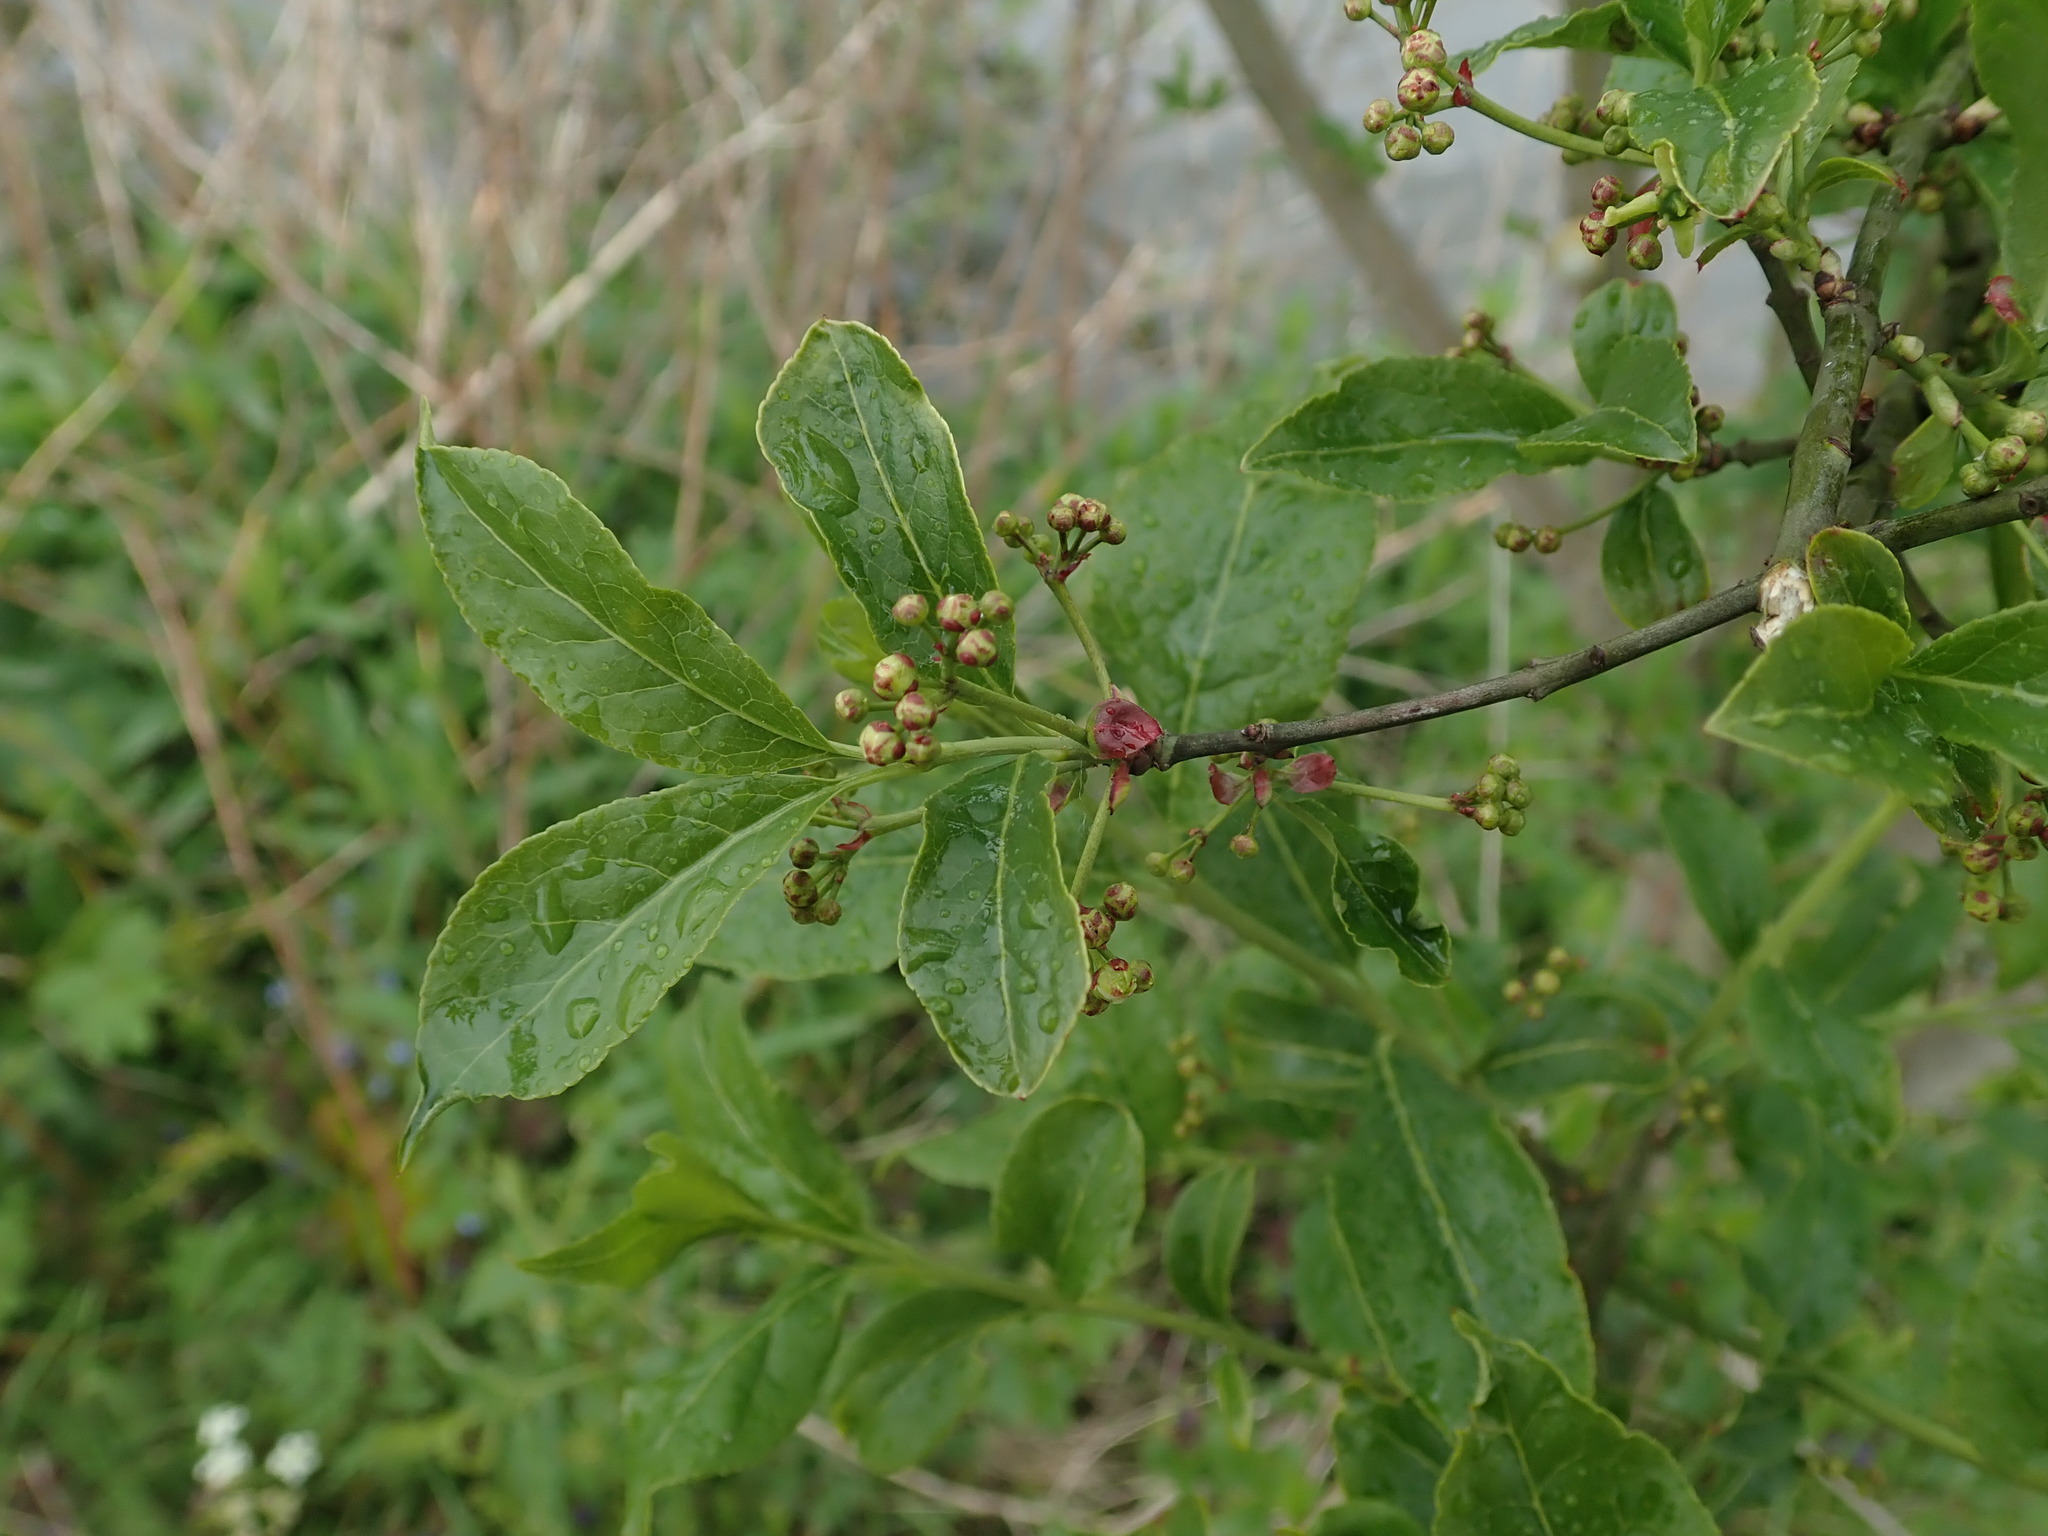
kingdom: Plantae
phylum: Tracheophyta
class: Magnoliopsida
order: Celastrales
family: Celastraceae
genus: Euonymus
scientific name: Euonymus europaeus
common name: Spindle
